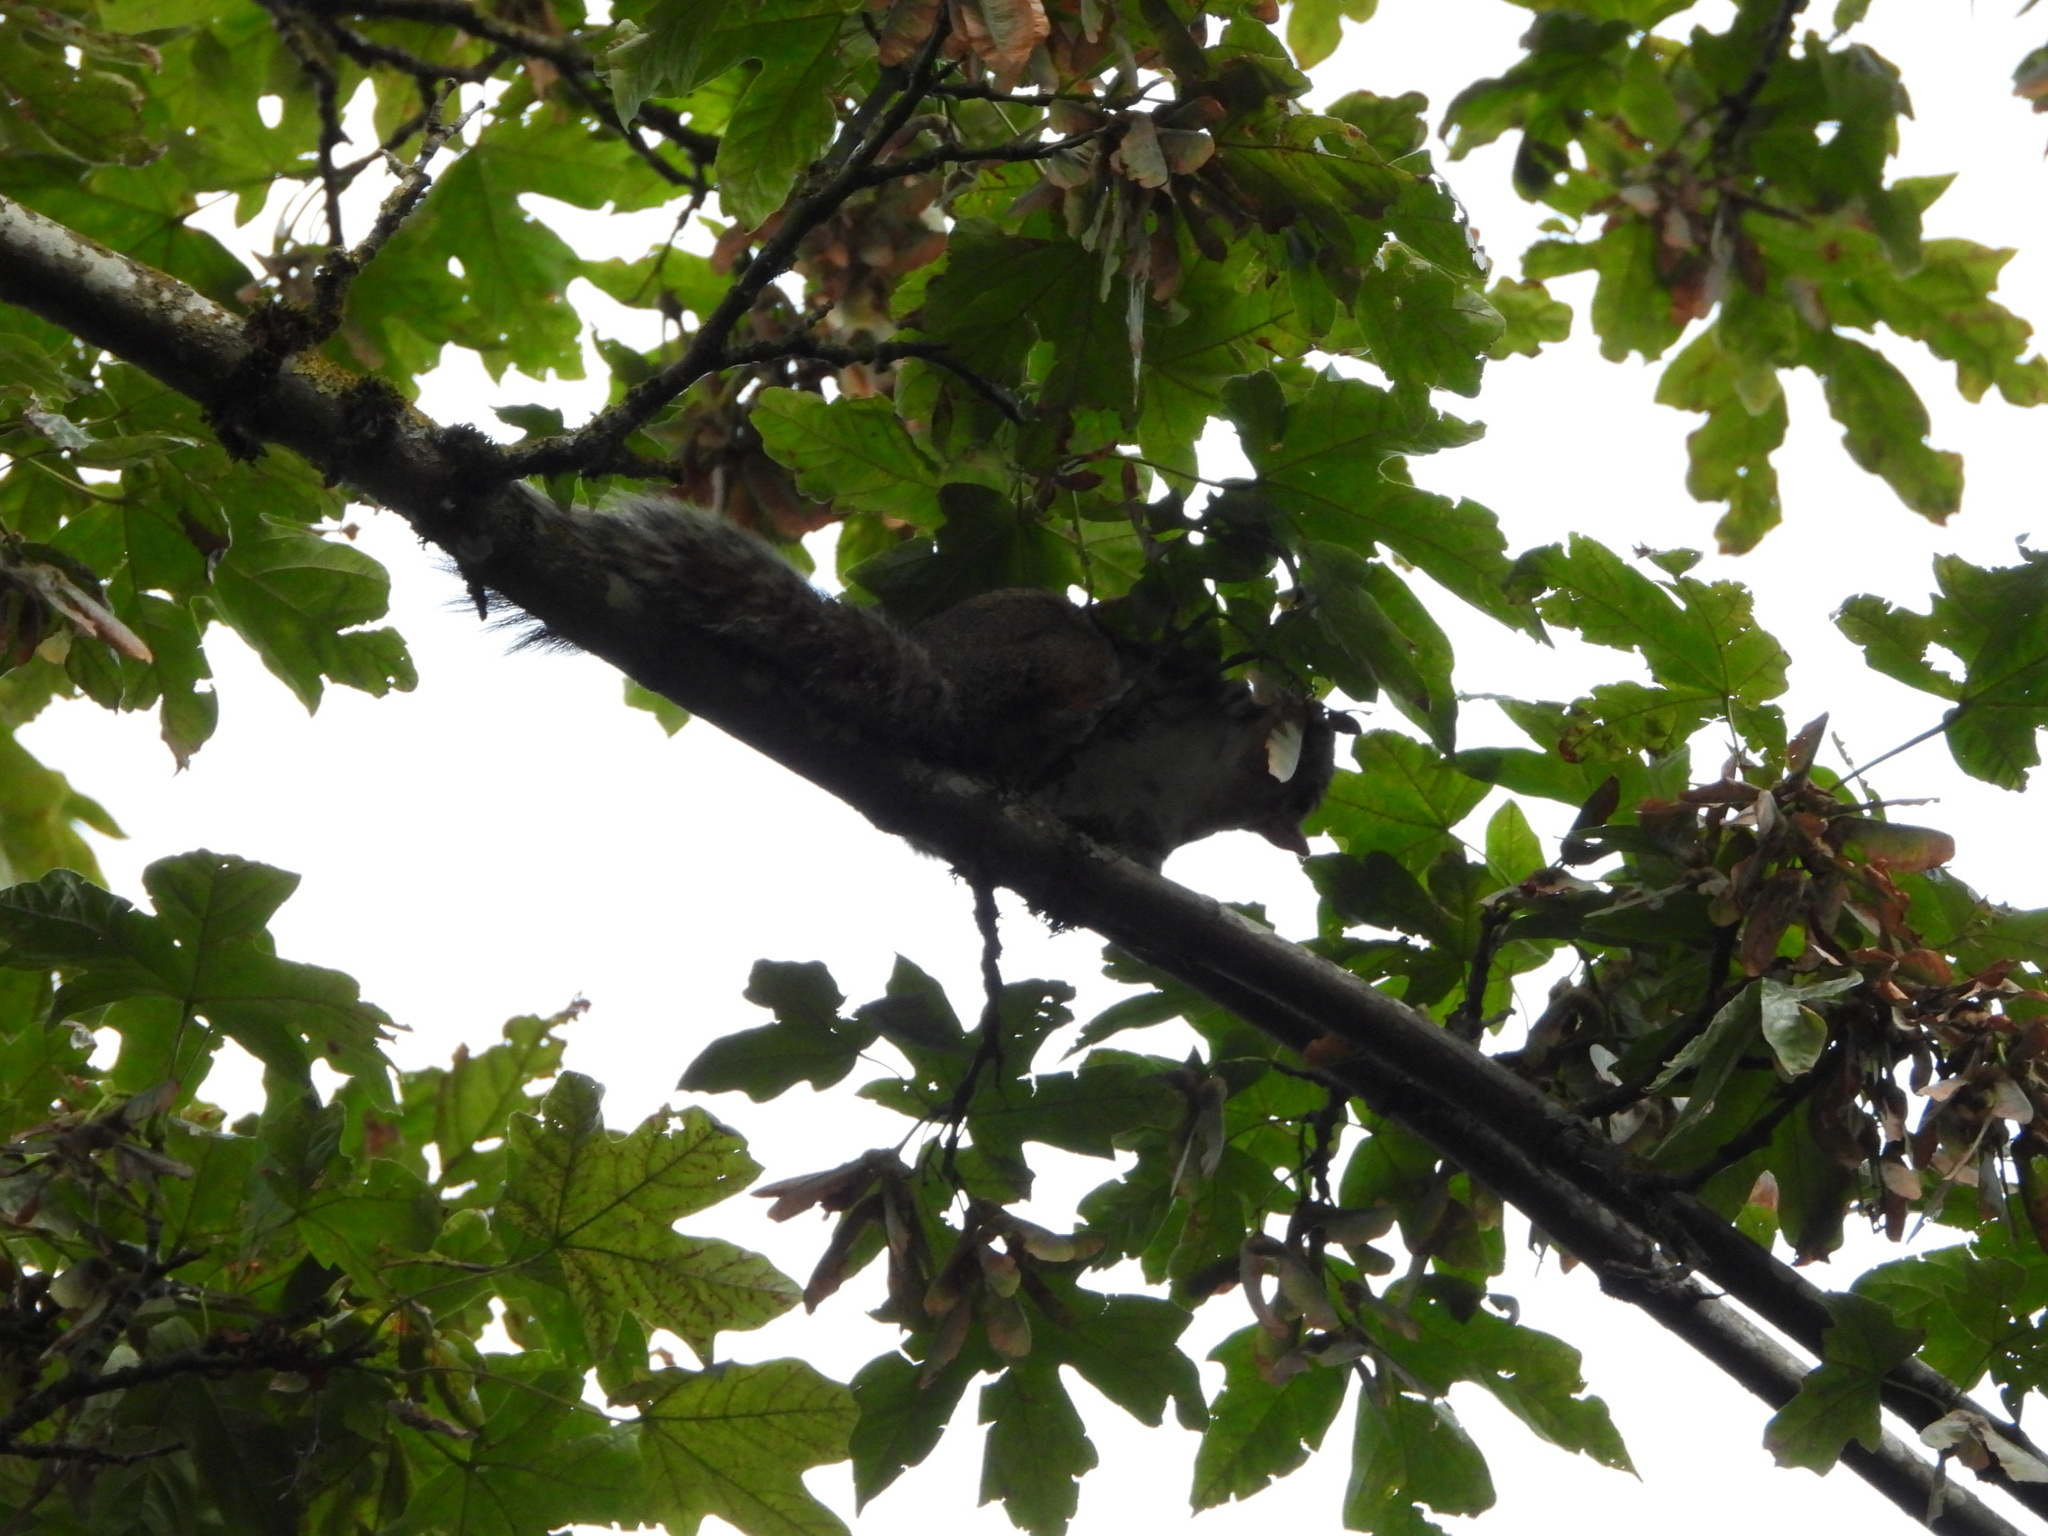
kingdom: Animalia
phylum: Chordata
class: Mammalia
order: Rodentia
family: Sciuridae
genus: Sciurus
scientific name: Sciurus carolinensis
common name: Eastern gray squirrel
